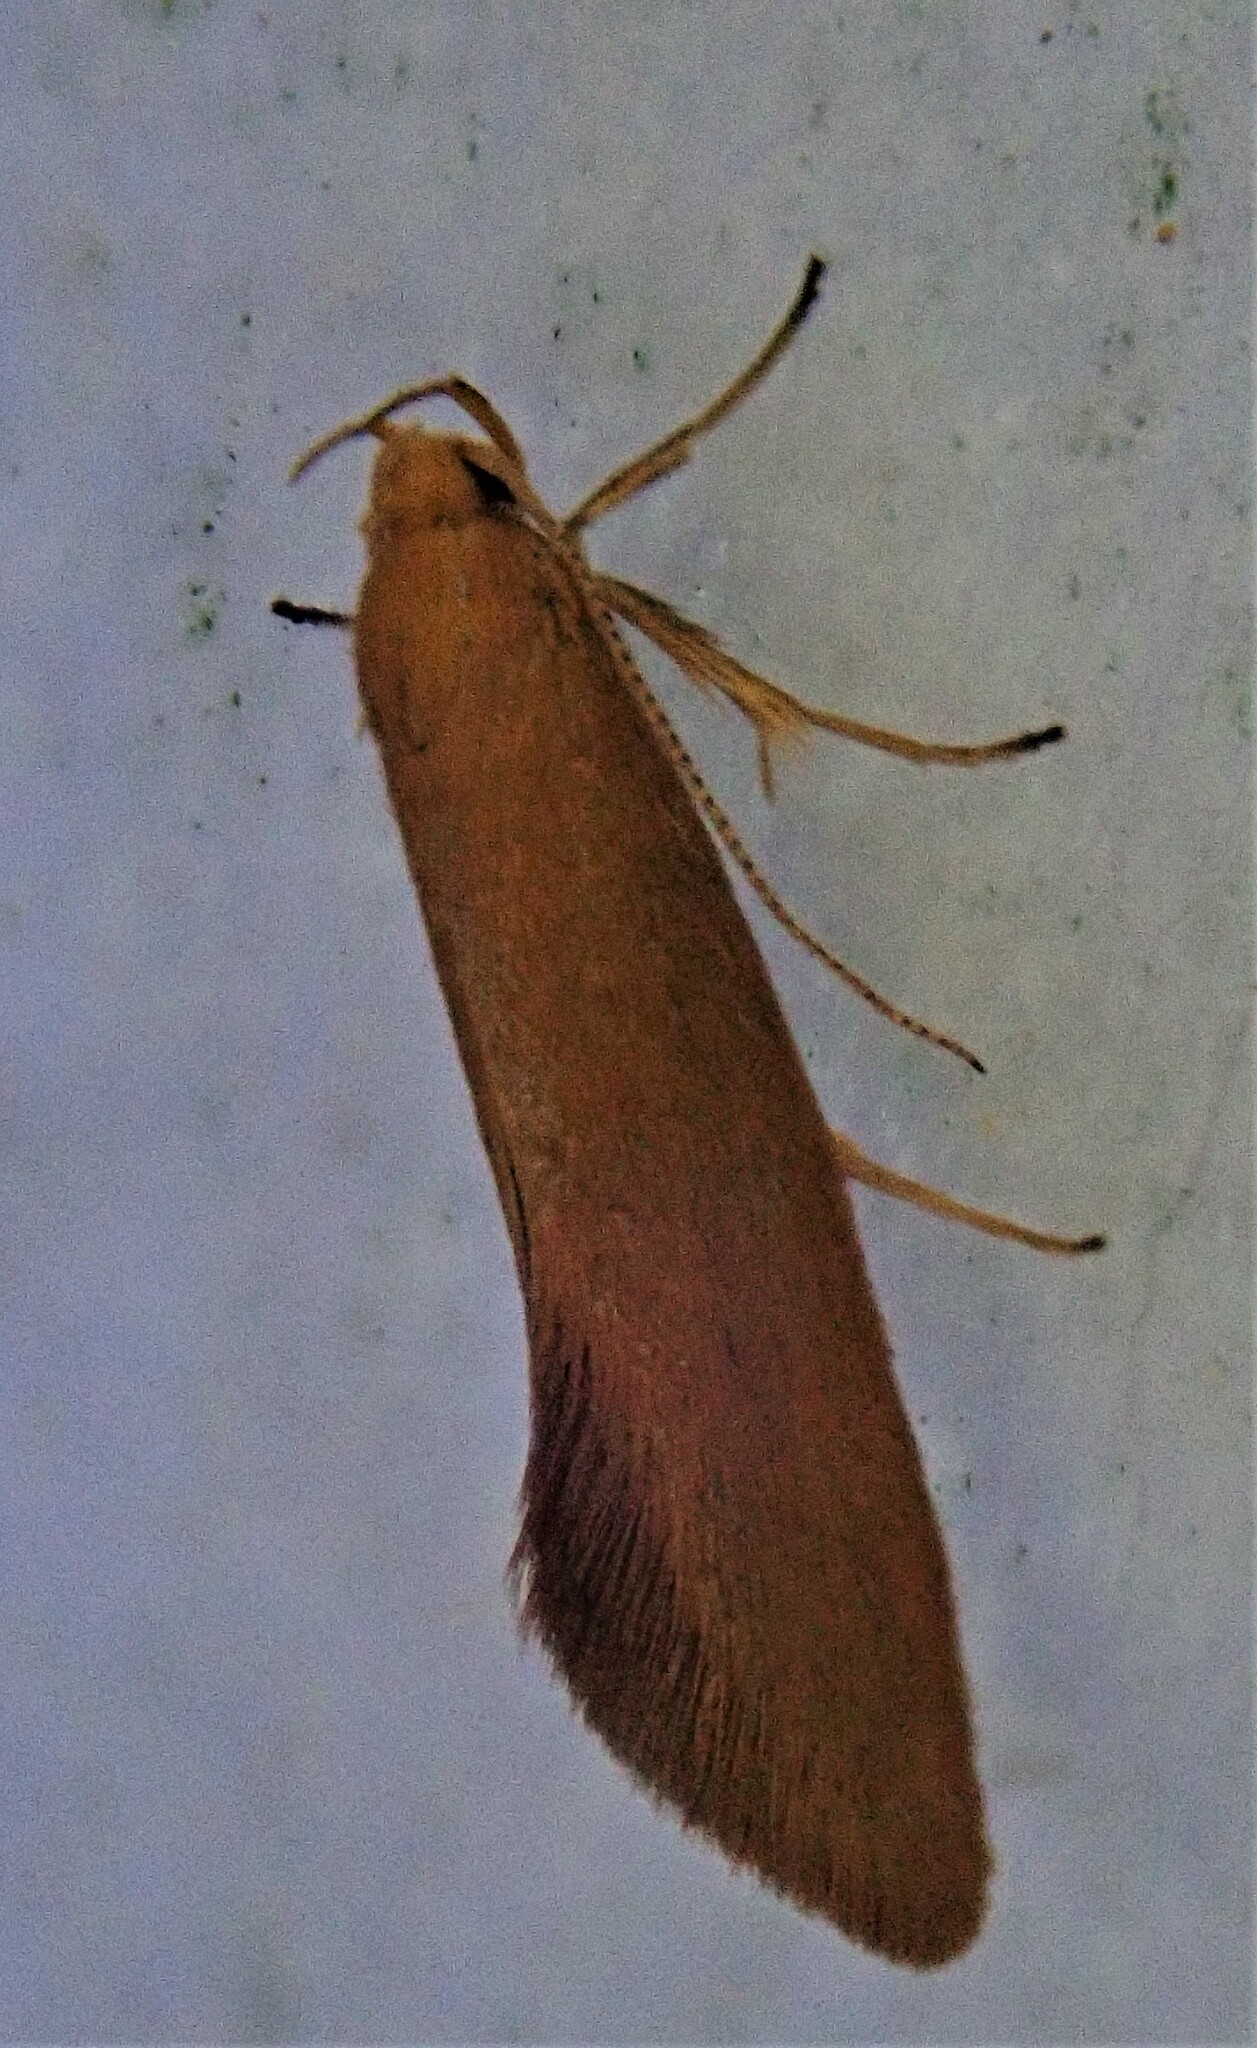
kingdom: Animalia
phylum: Arthropoda
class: Insecta
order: Lepidoptera
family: Oecophoridae
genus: Borkhausenia
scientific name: Borkhausenia Crassa tinctella
